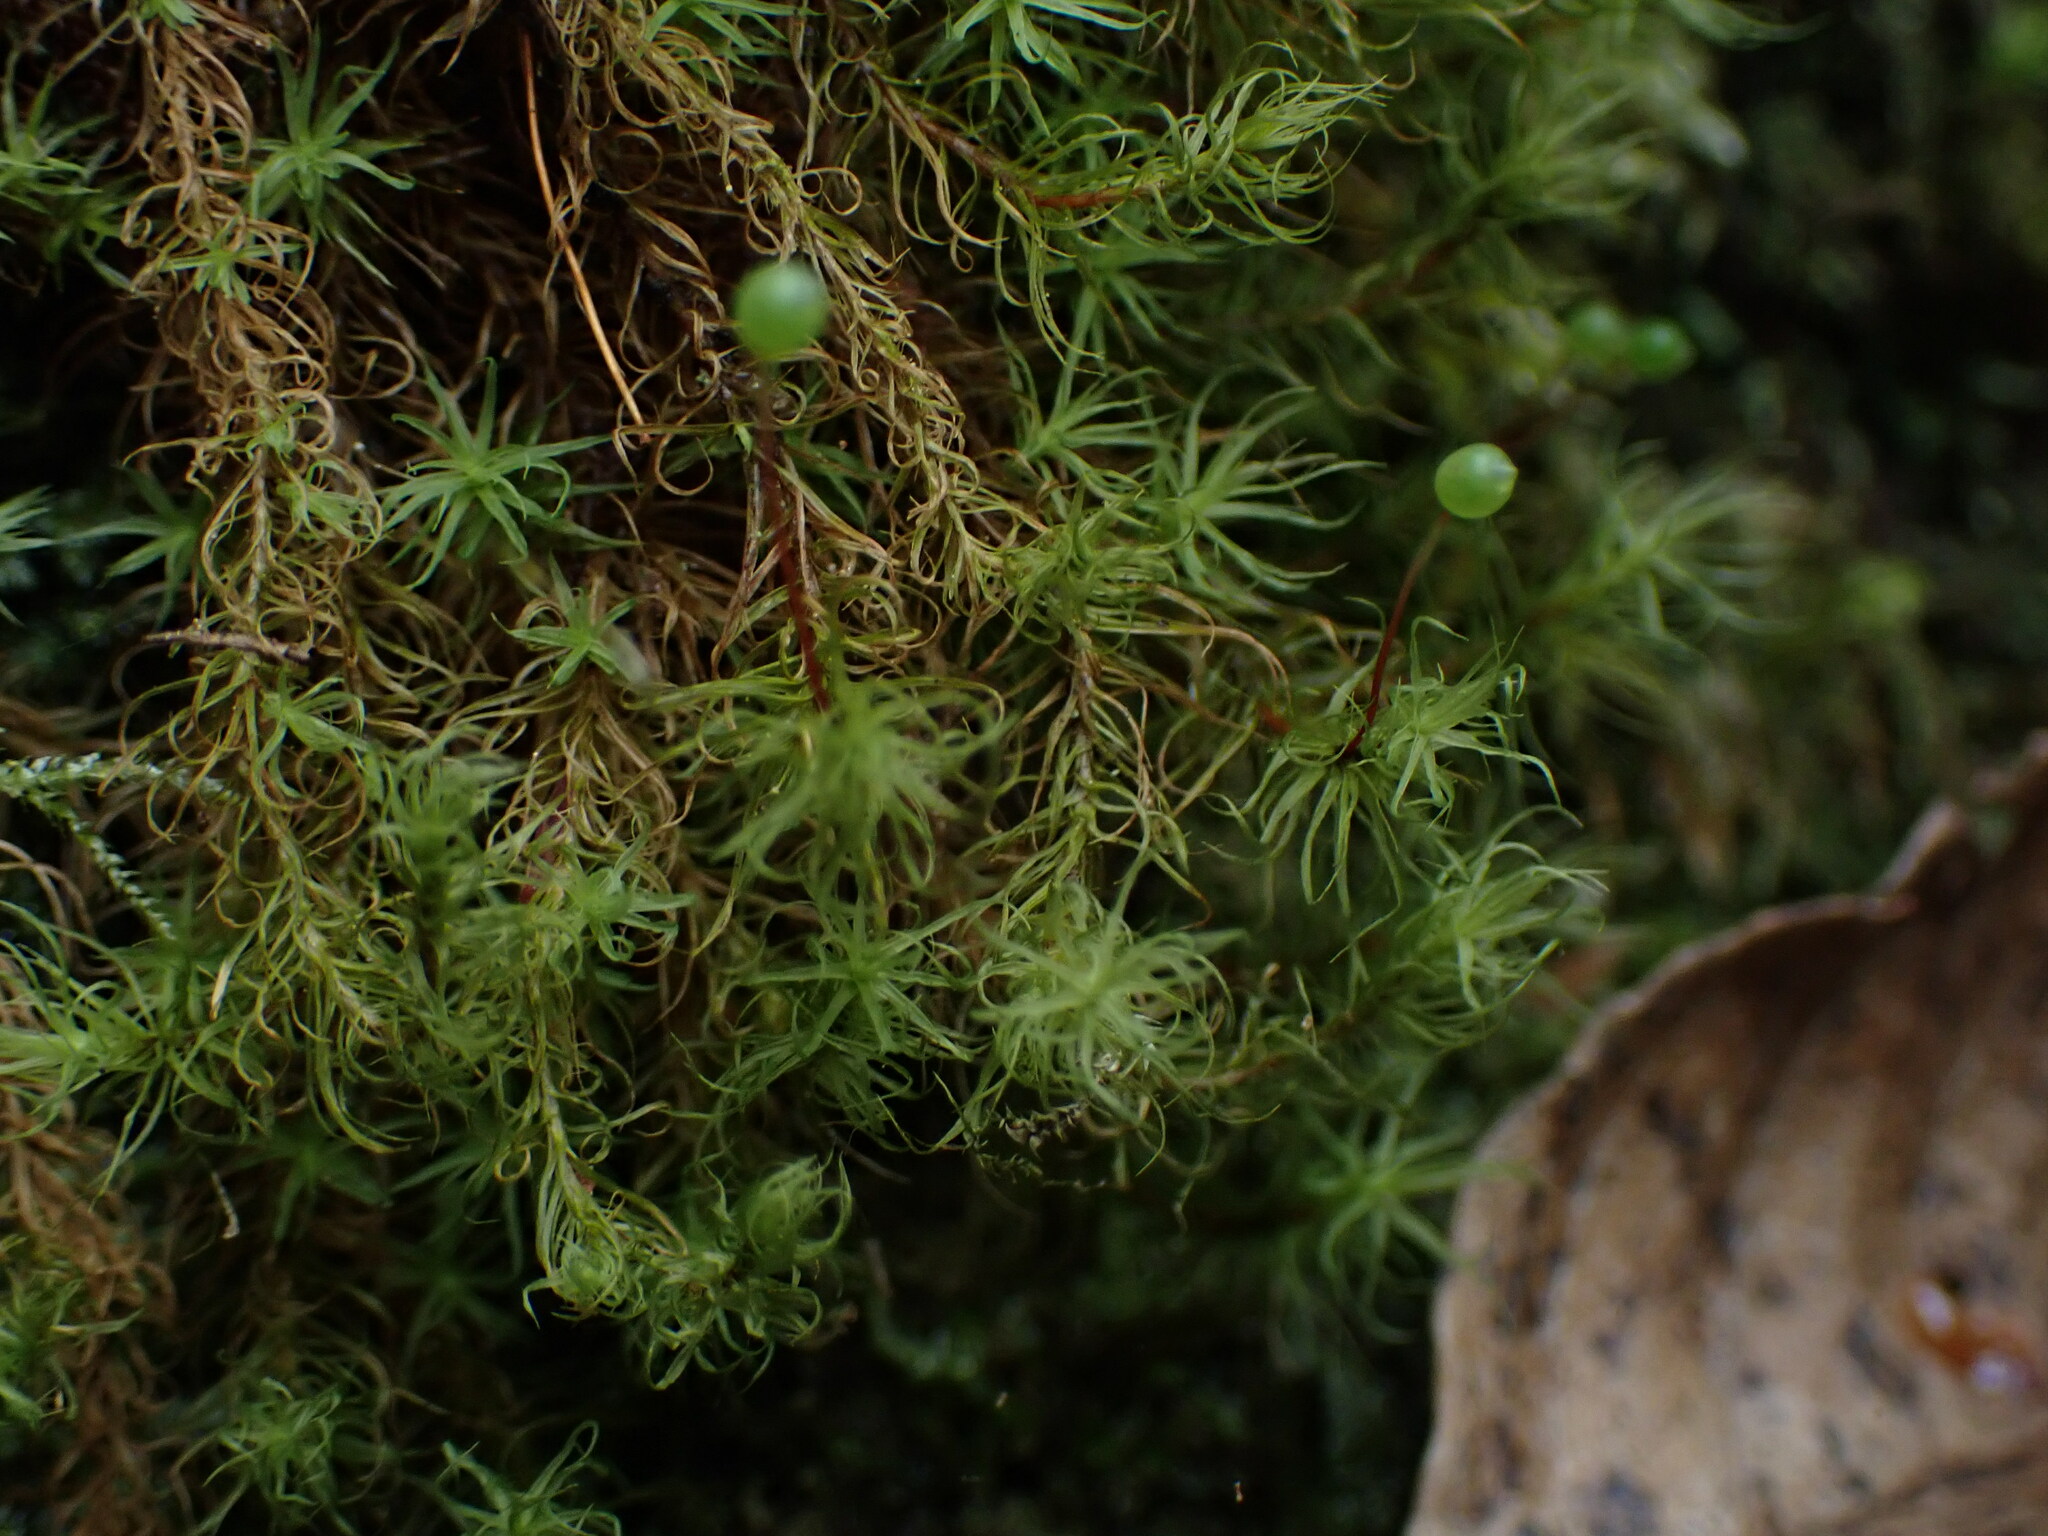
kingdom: Plantae
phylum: Bryophyta
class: Bryopsida
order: Bartramiales
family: Bartramiaceae
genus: Bartramia
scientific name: Bartramia ithyphylla
